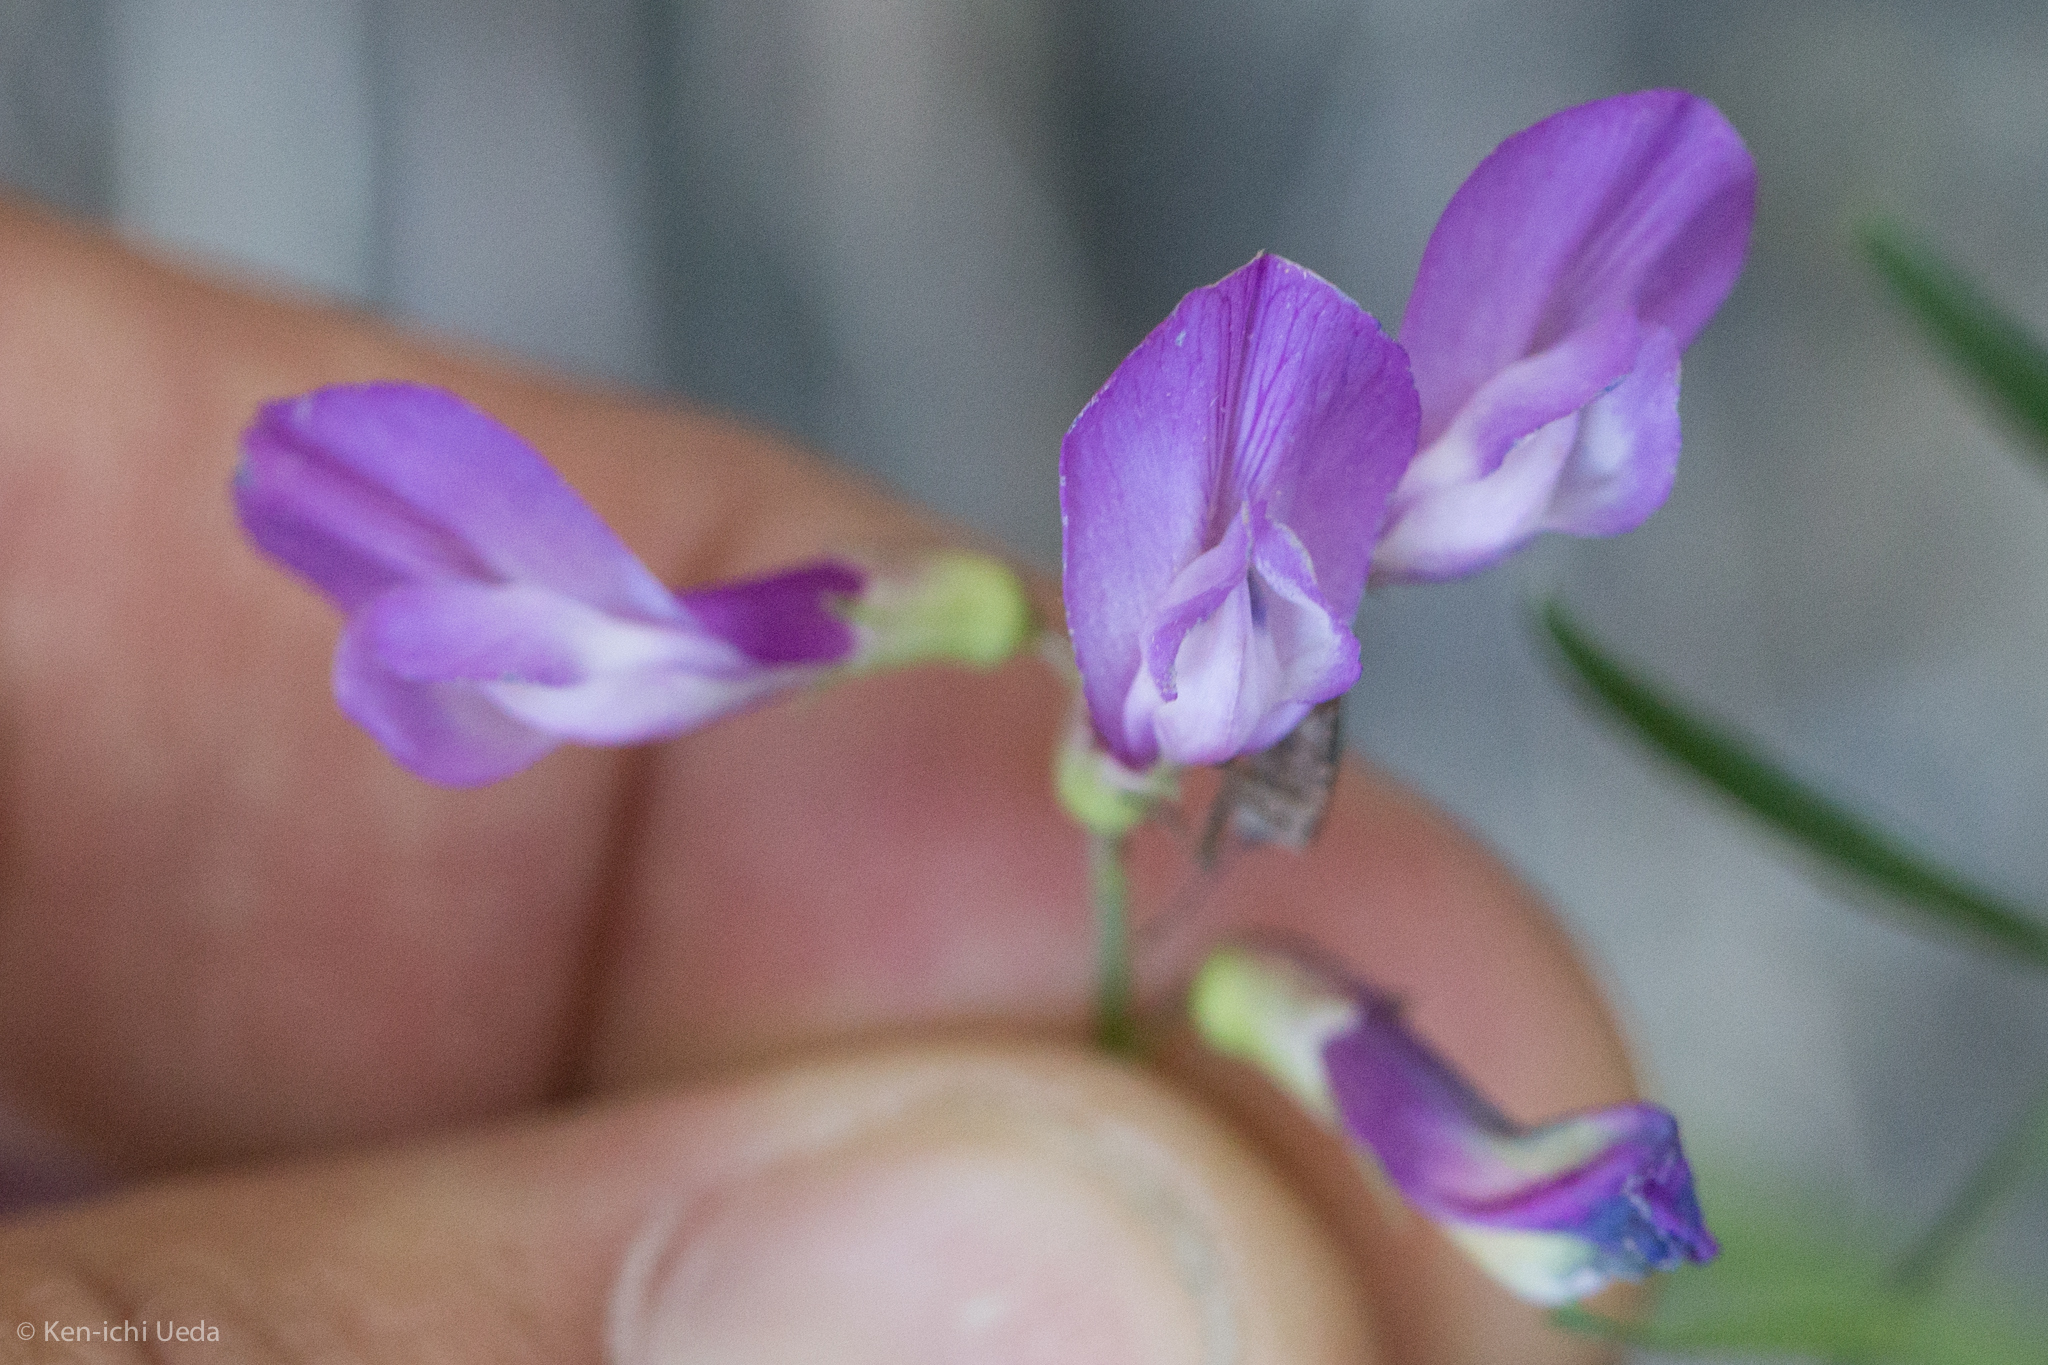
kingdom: Plantae
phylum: Tracheophyta
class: Magnoliopsida
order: Fabales
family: Fabaceae
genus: Vicia
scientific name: Vicia americana
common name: American vetch
